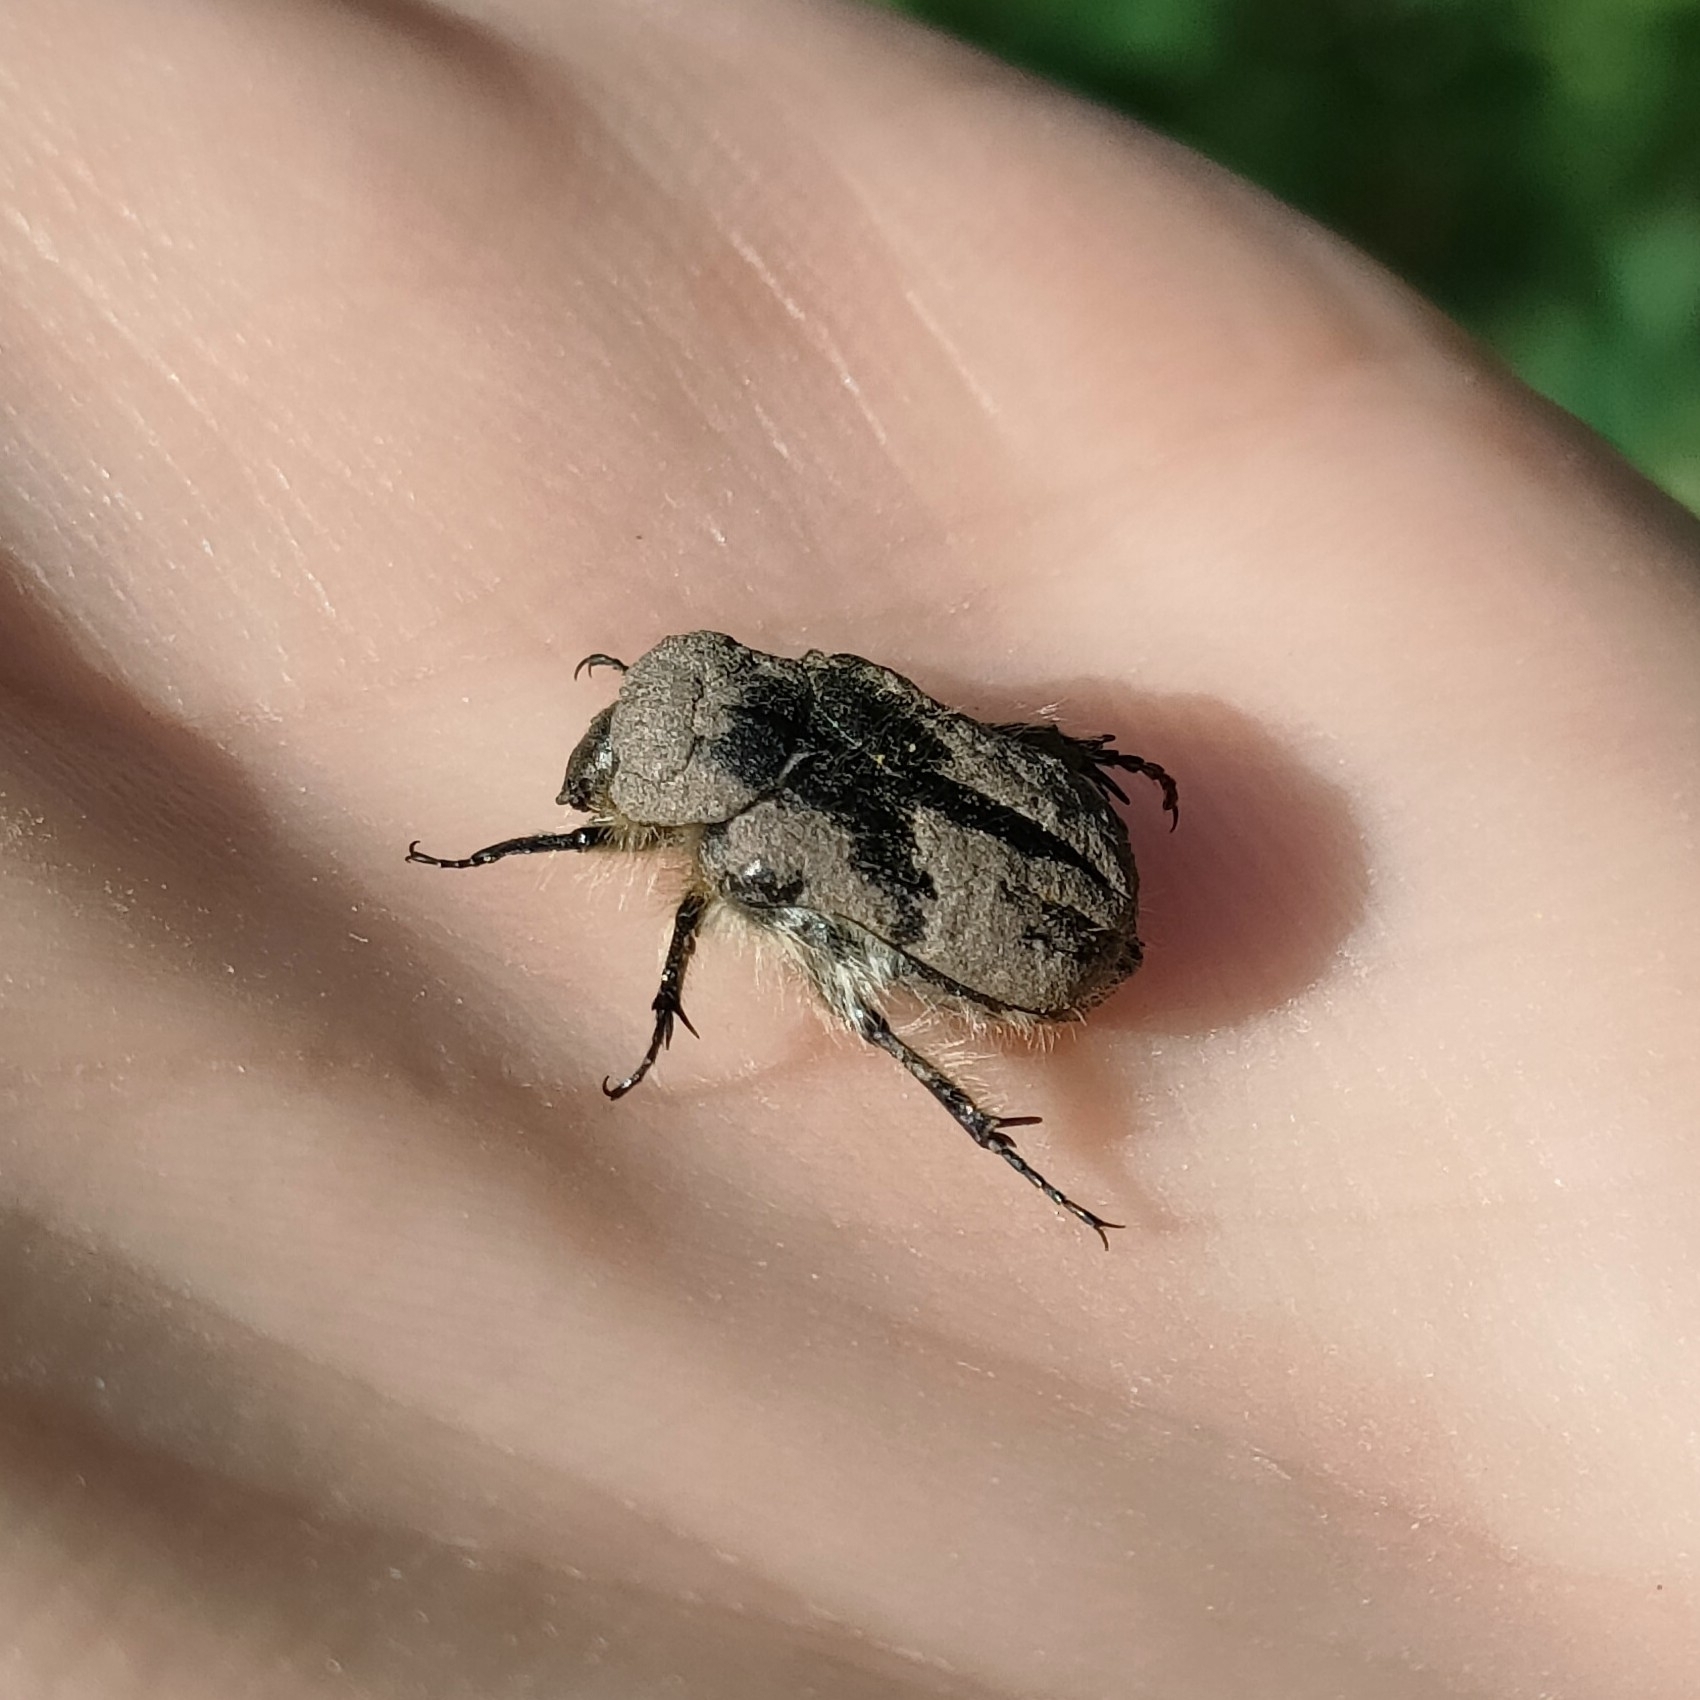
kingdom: Animalia
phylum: Arthropoda
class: Insecta
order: Coleoptera
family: Scarabaeidae
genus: Tropinota
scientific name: Tropinota hirta
